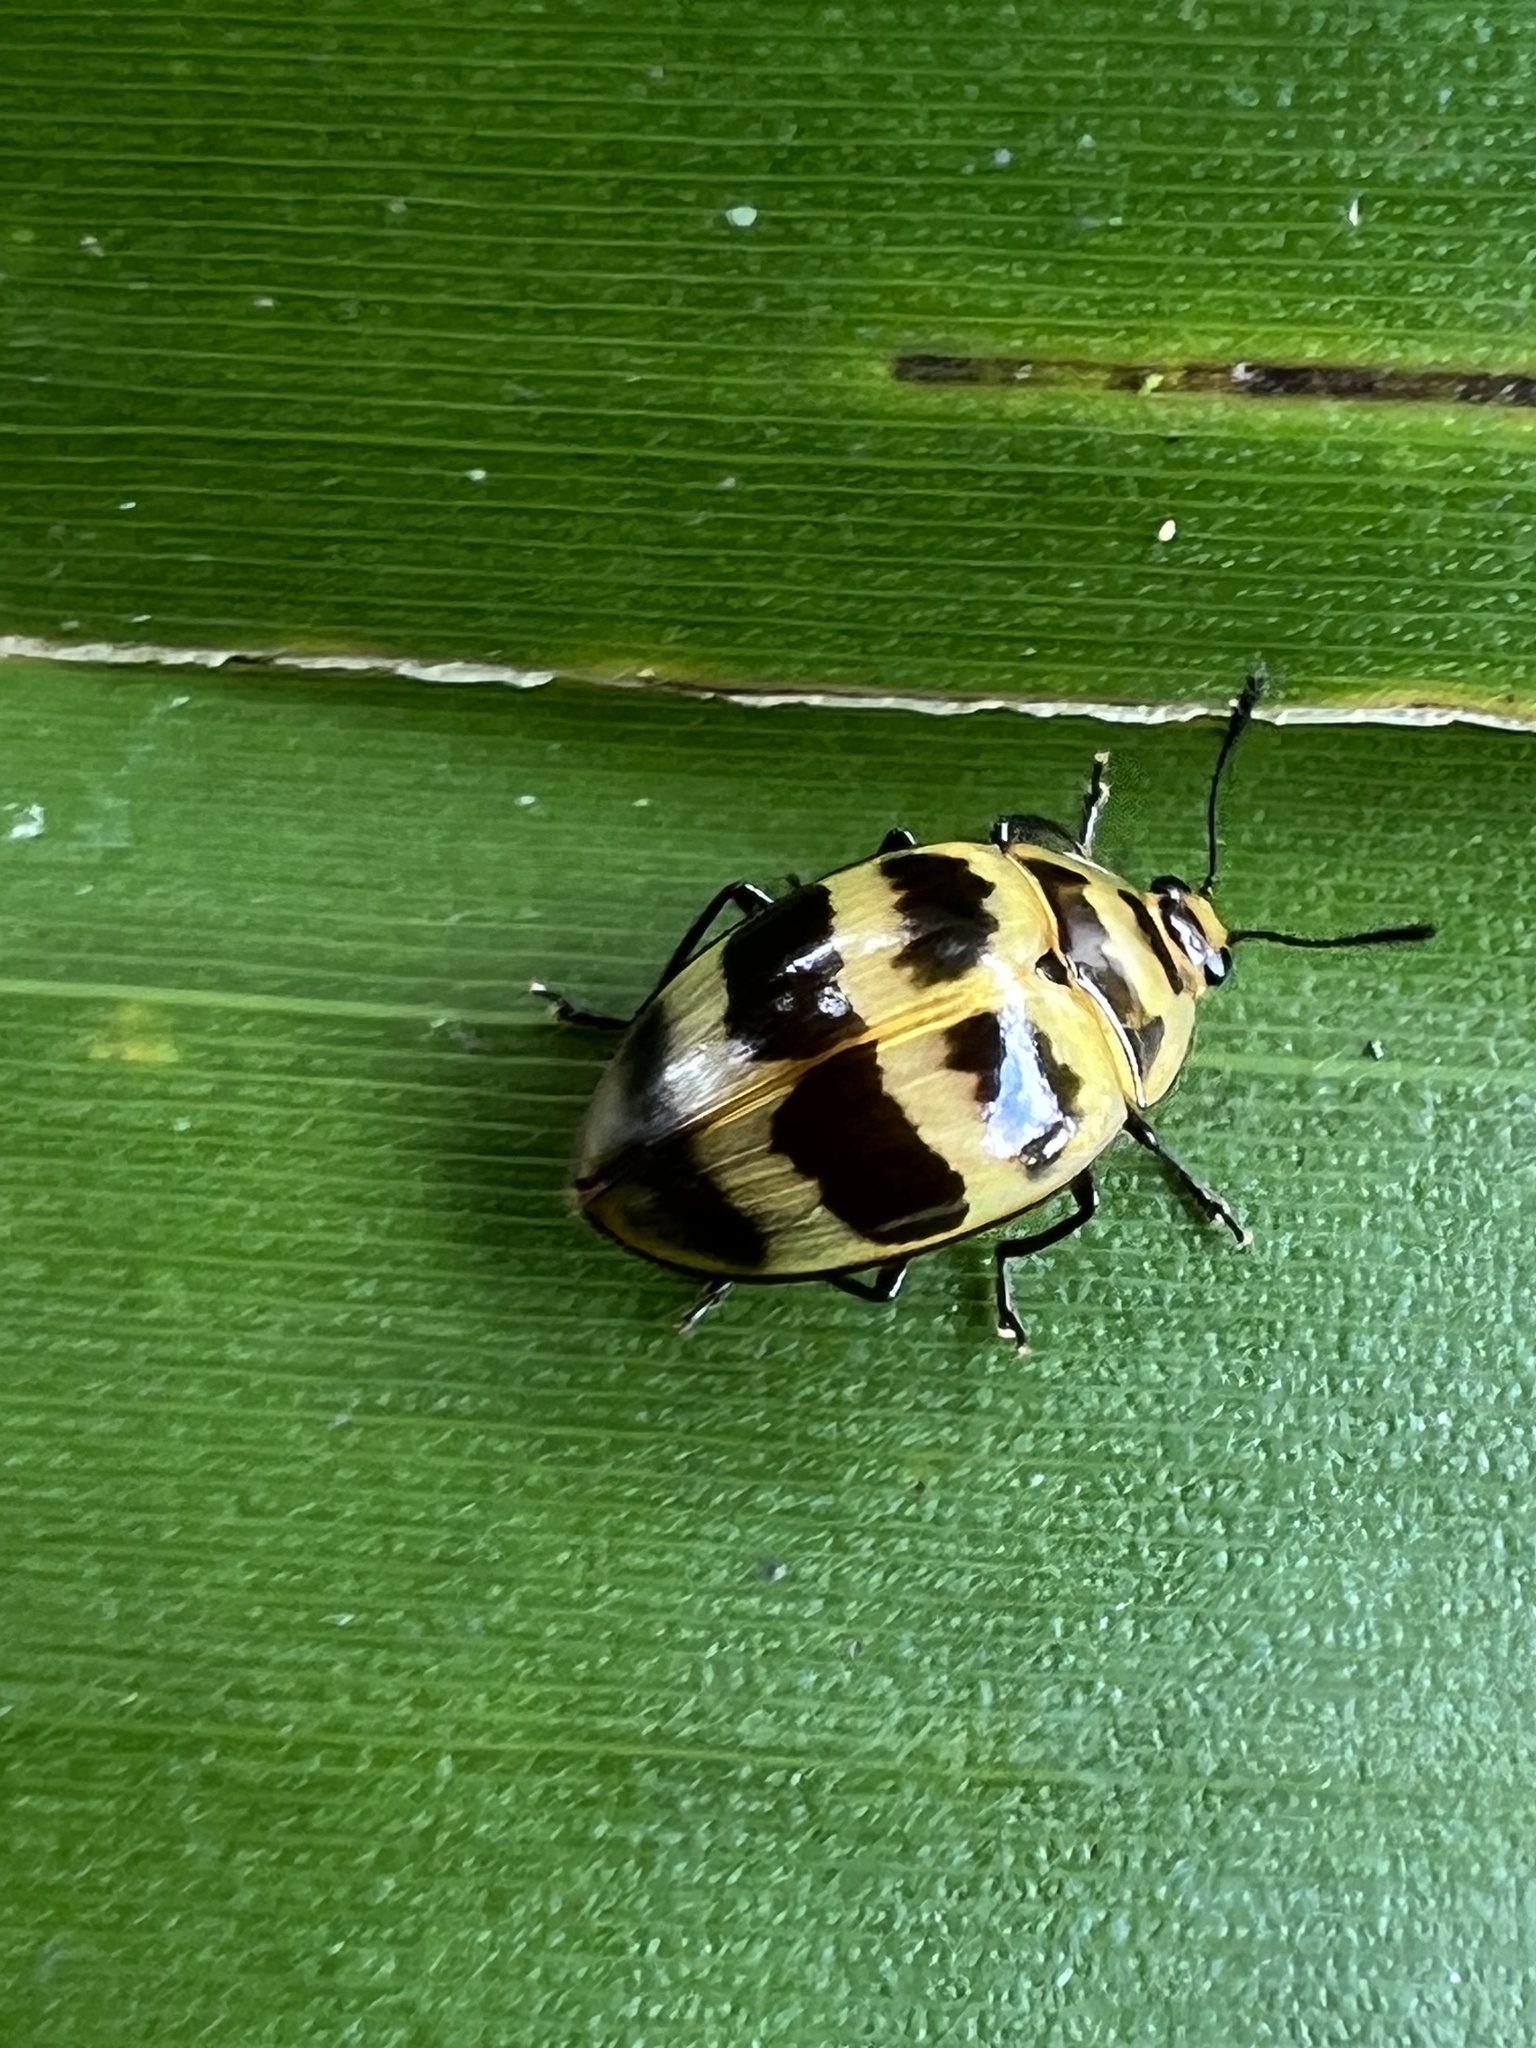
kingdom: Animalia
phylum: Arthropoda
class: Insecta
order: Coleoptera
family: Erotylidae
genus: Prepopharus
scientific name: Prepopharus
